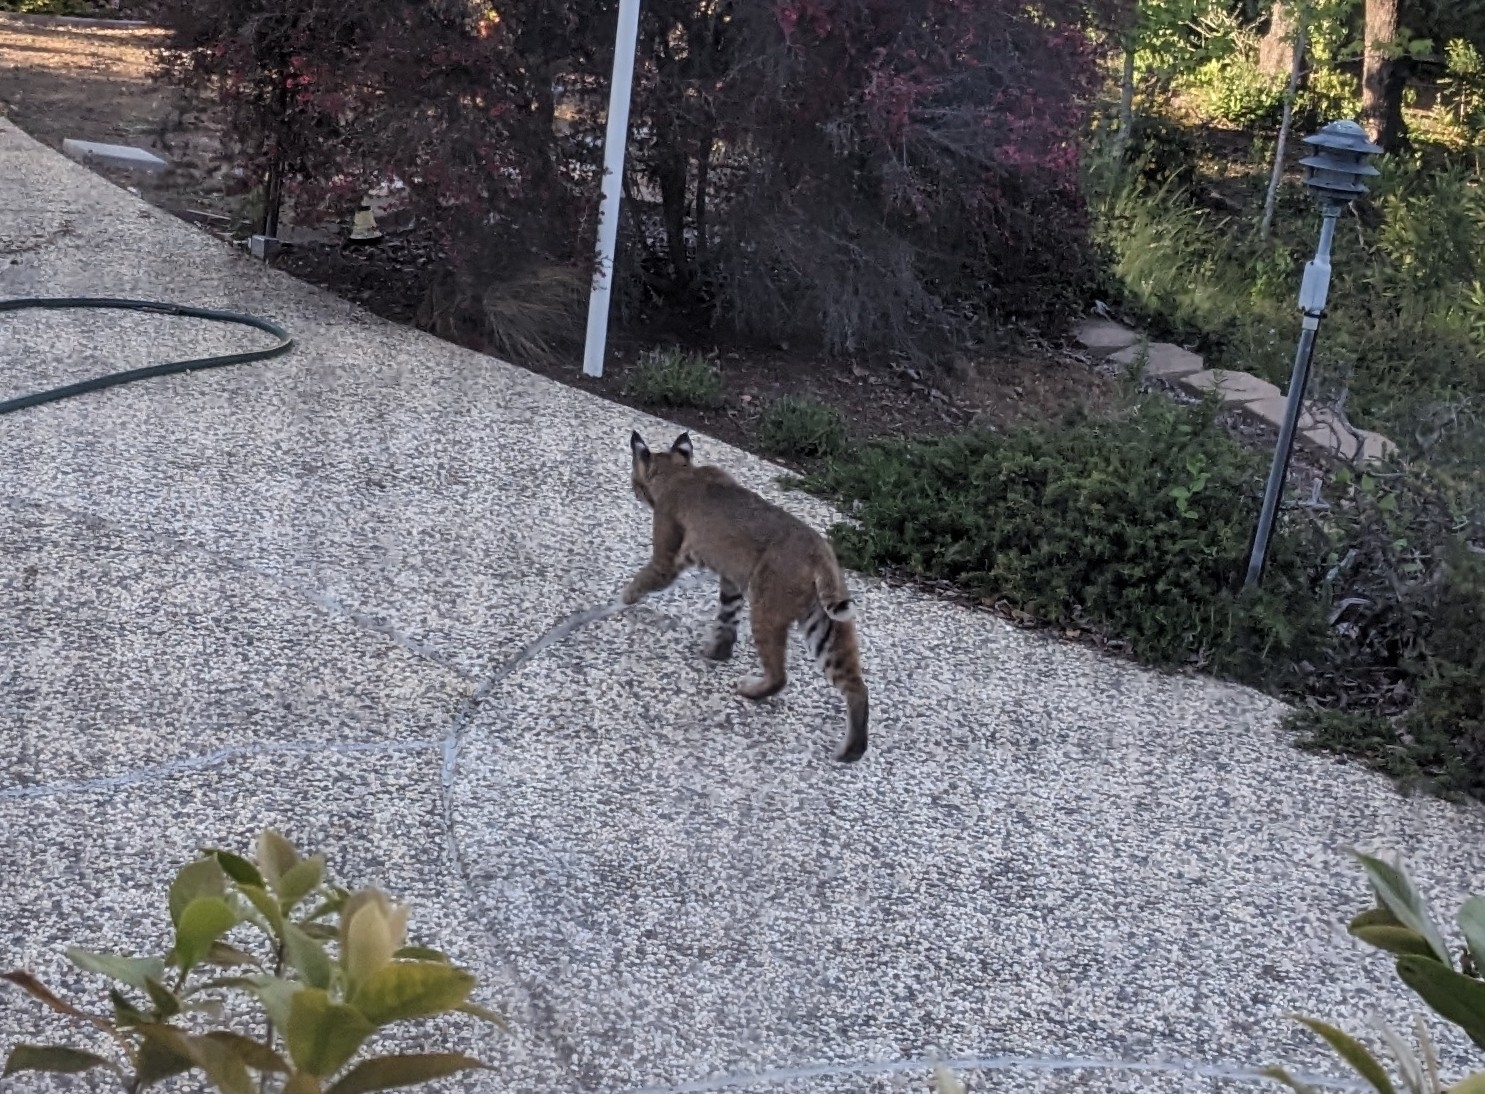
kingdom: Animalia
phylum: Chordata
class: Mammalia
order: Carnivora
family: Felidae
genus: Lynx
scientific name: Lynx rufus
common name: Bobcat
